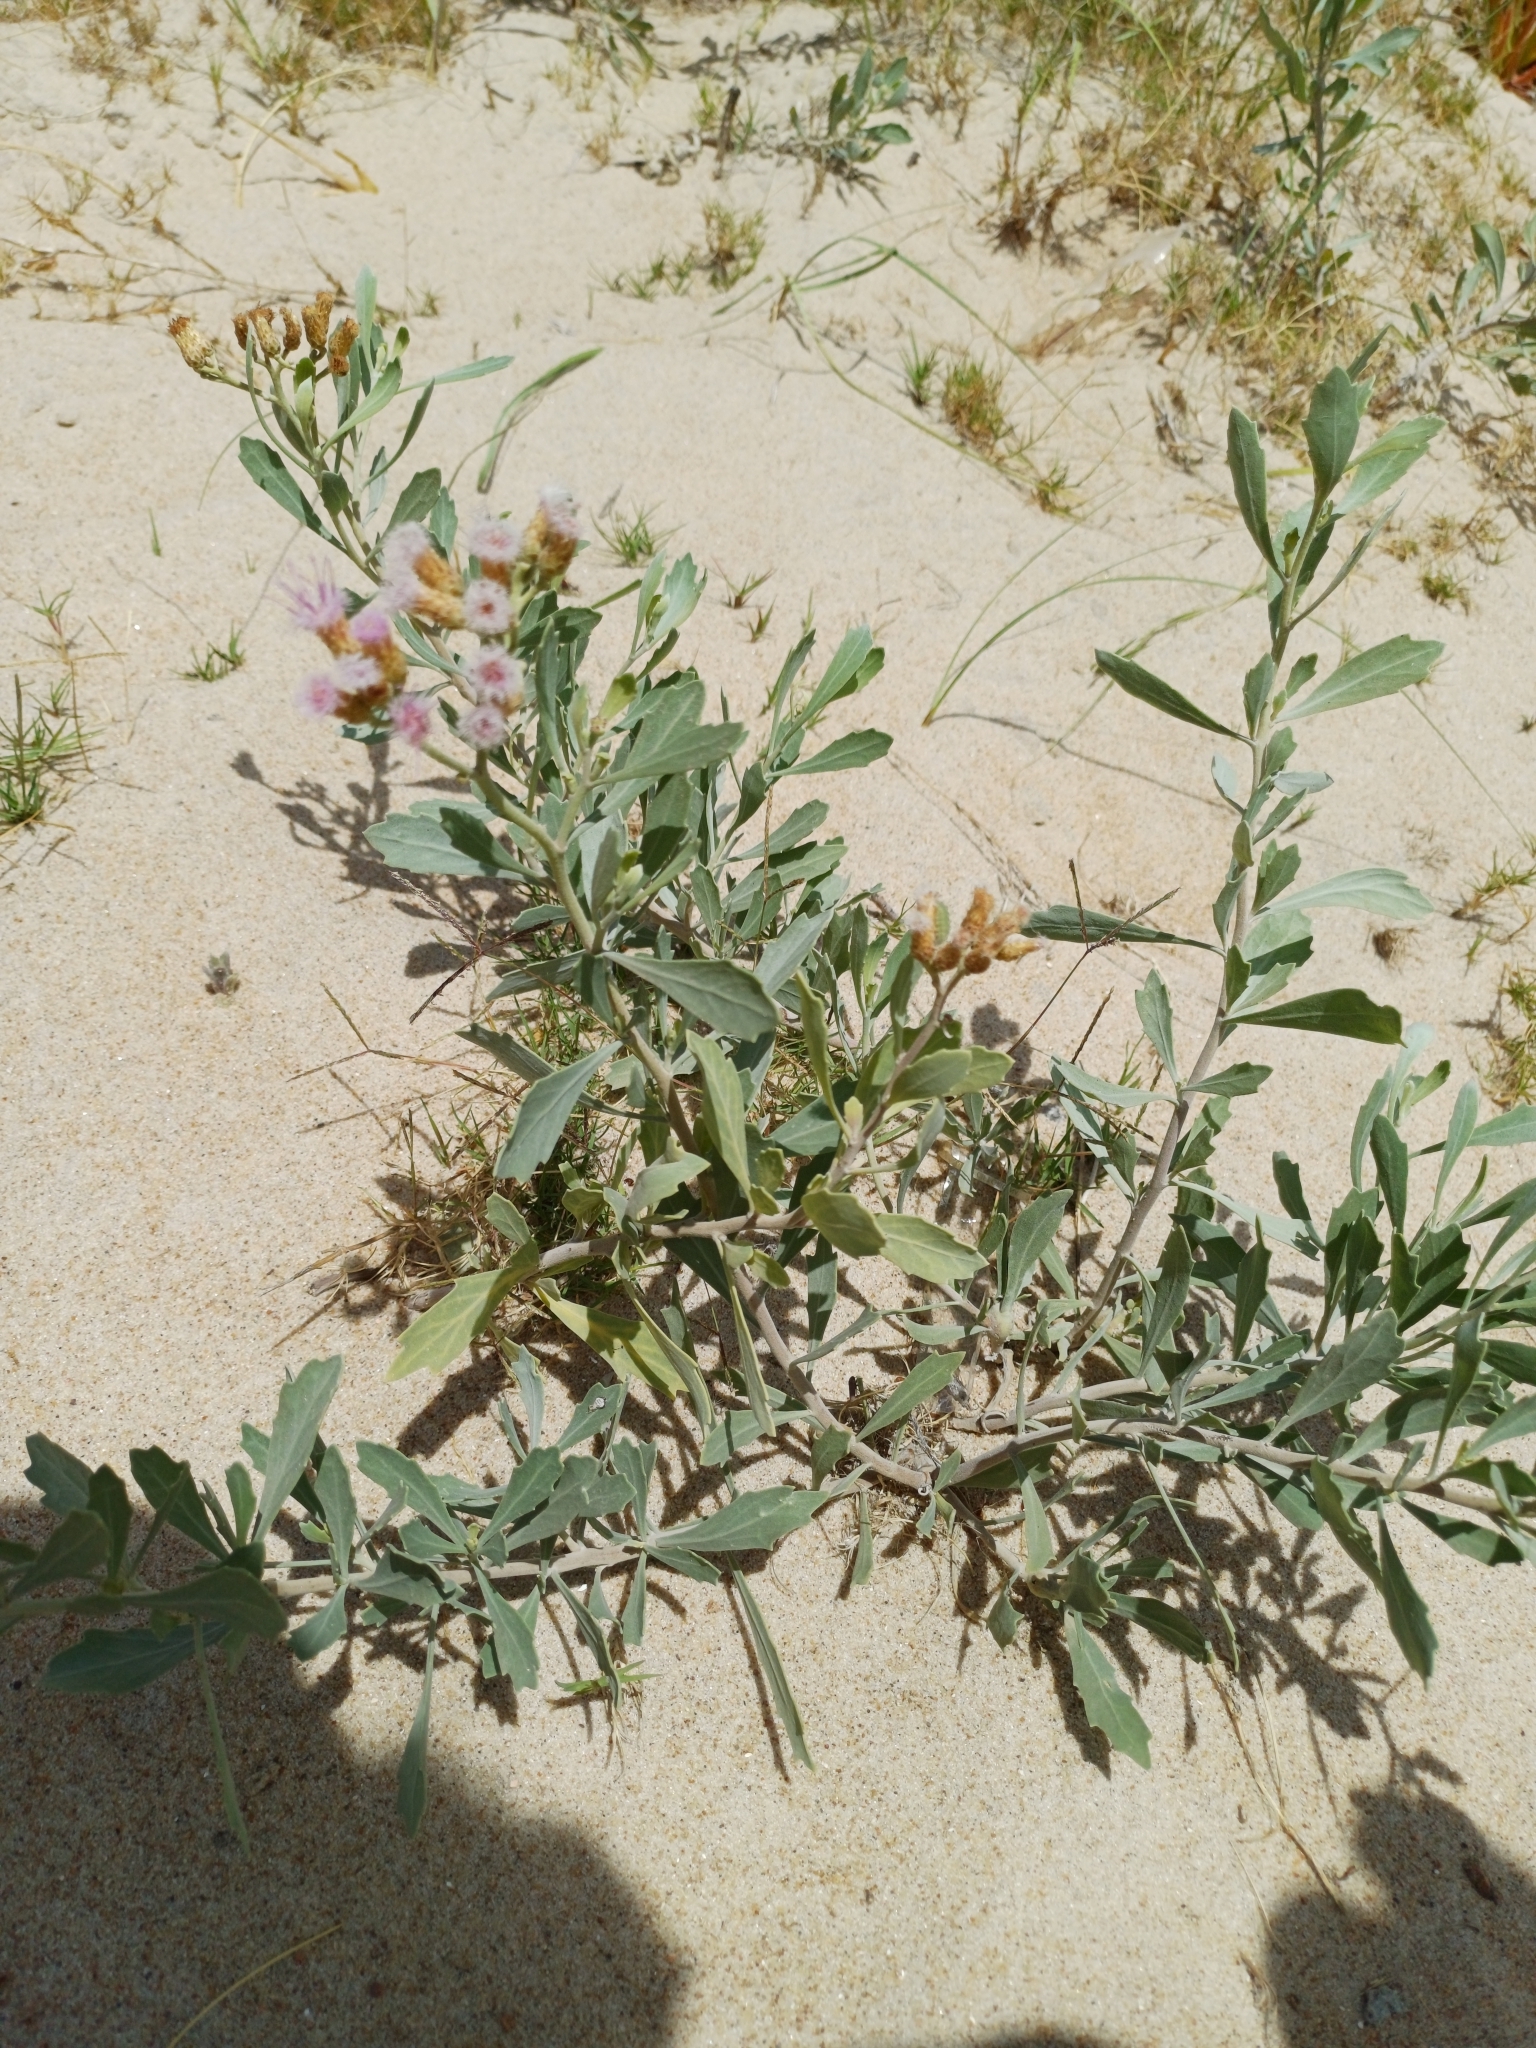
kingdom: Plantae
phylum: Tracheophyta
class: Magnoliopsida
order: Asterales
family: Asteraceae
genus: Tessaria
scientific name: Tessaria absinthioides
